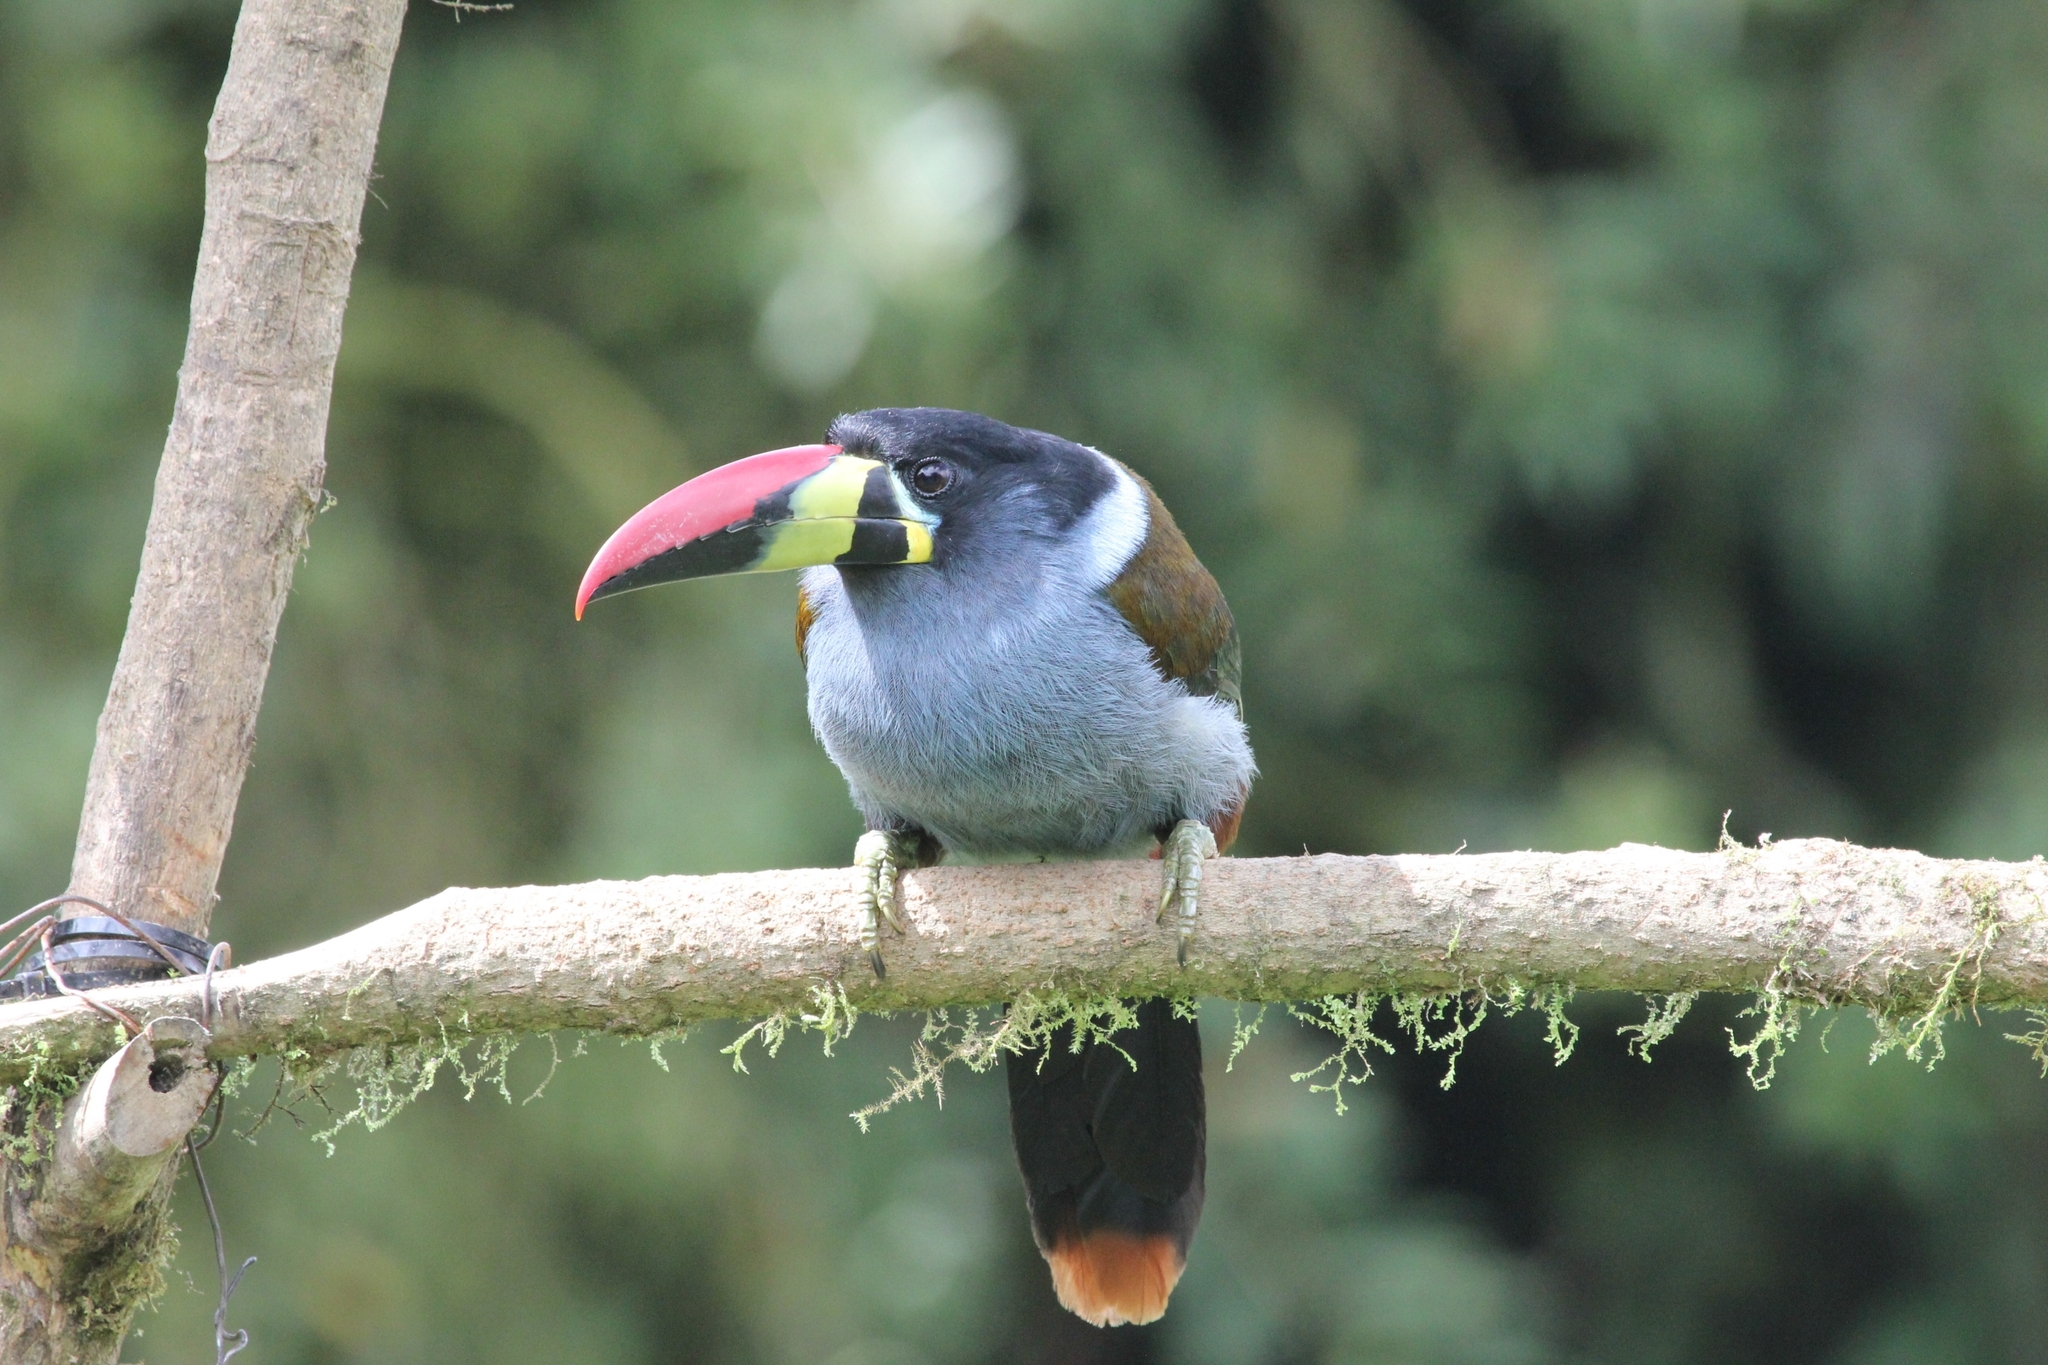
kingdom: Animalia
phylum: Chordata
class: Aves
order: Piciformes
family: Ramphastidae
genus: Andigena
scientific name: Andigena hypoglauca
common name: Grey-breasted mountain toucan
